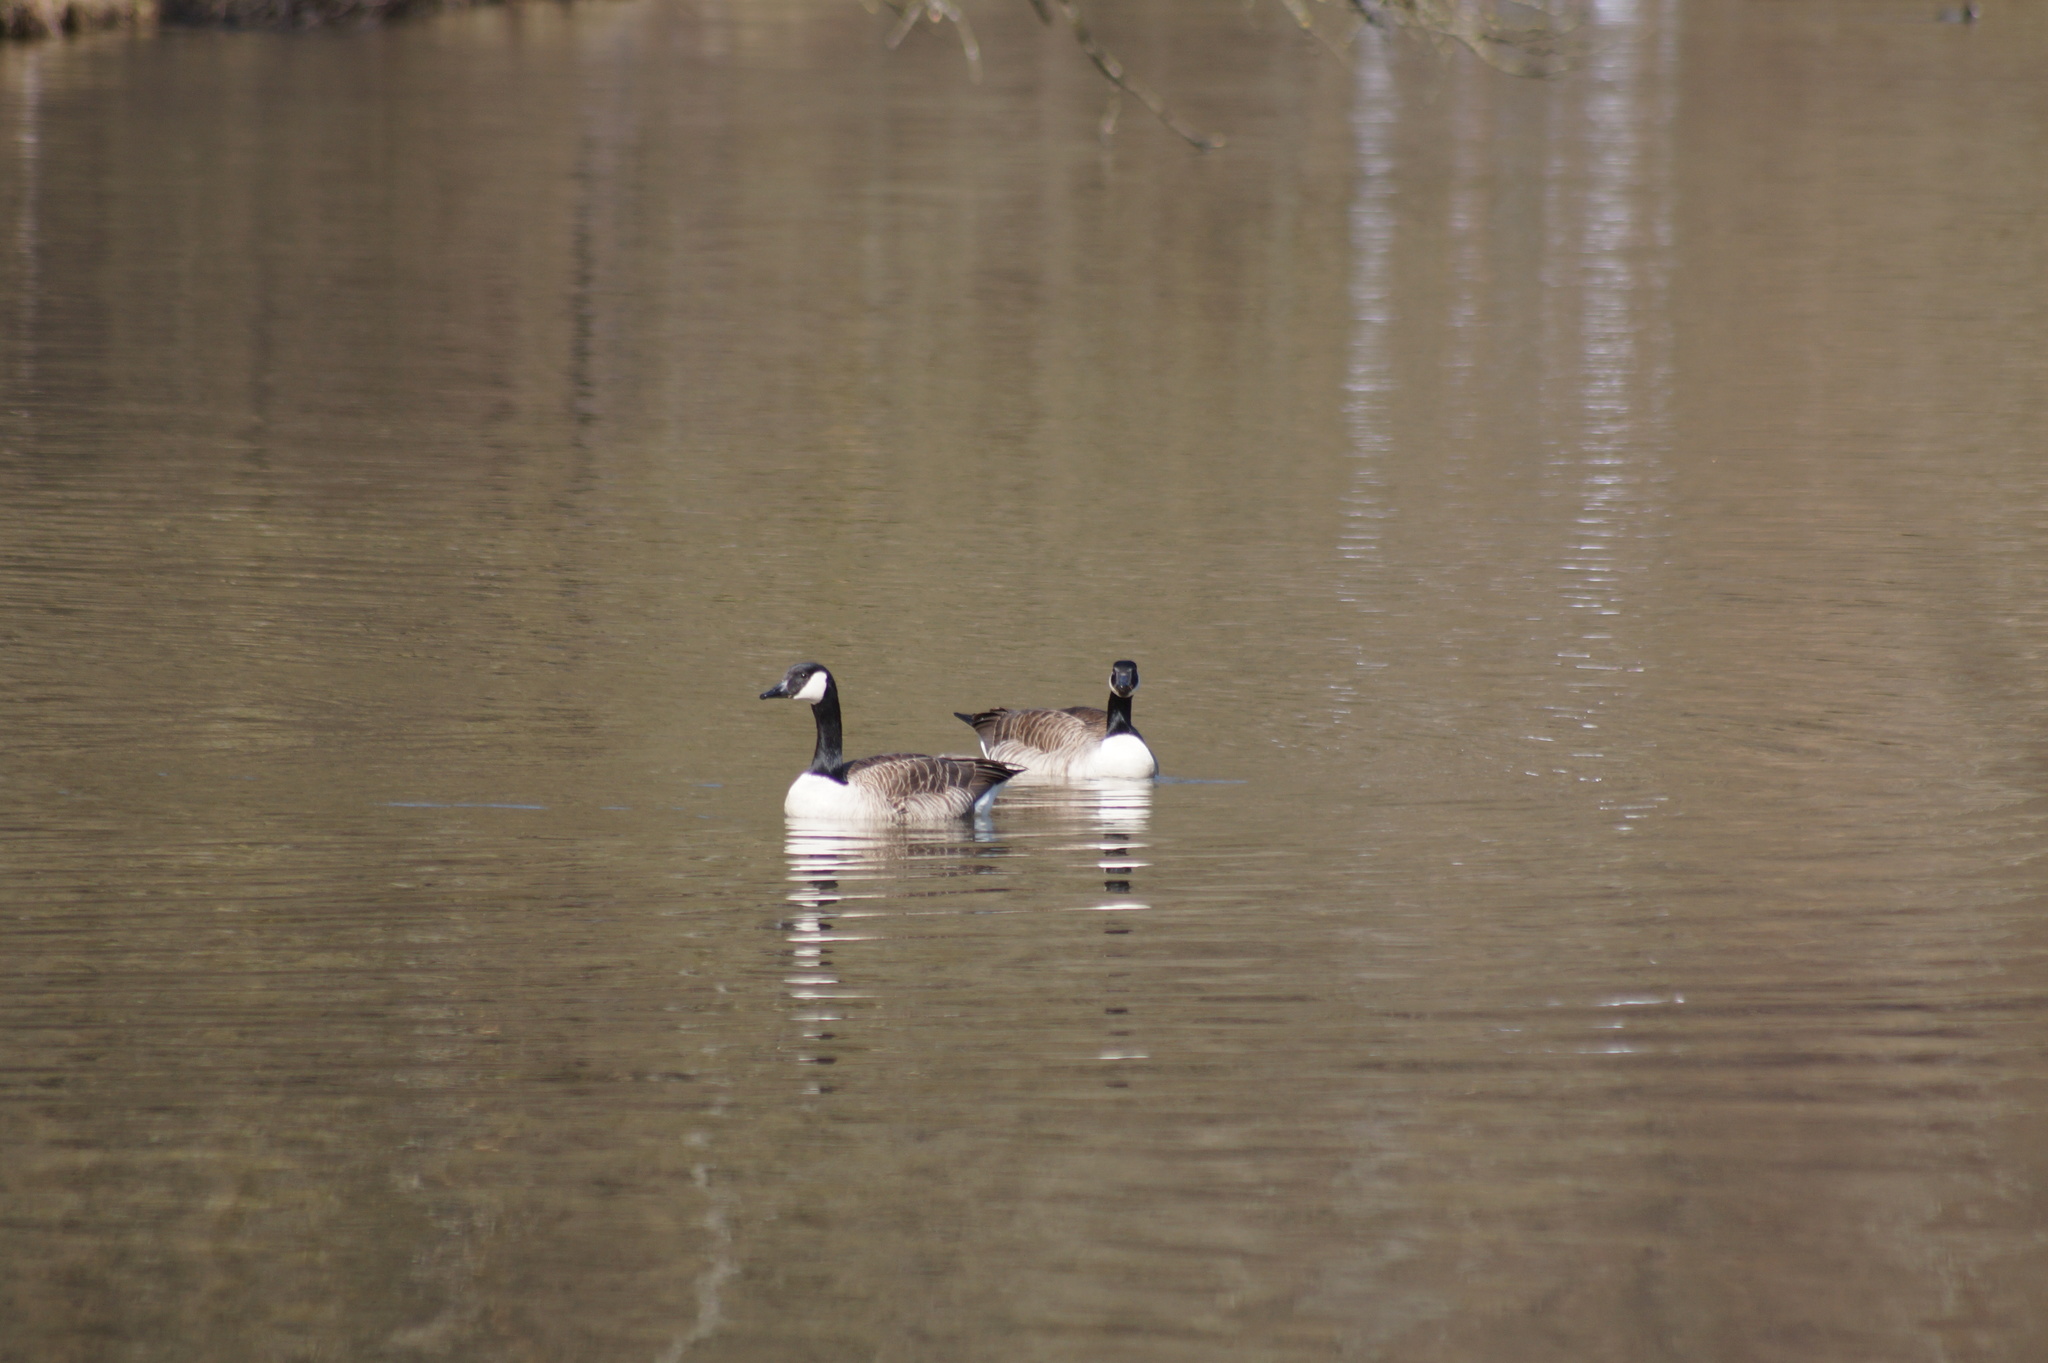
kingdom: Animalia
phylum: Chordata
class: Aves
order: Anseriformes
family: Anatidae
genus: Branta
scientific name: Branta canadensis
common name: Canada goose
